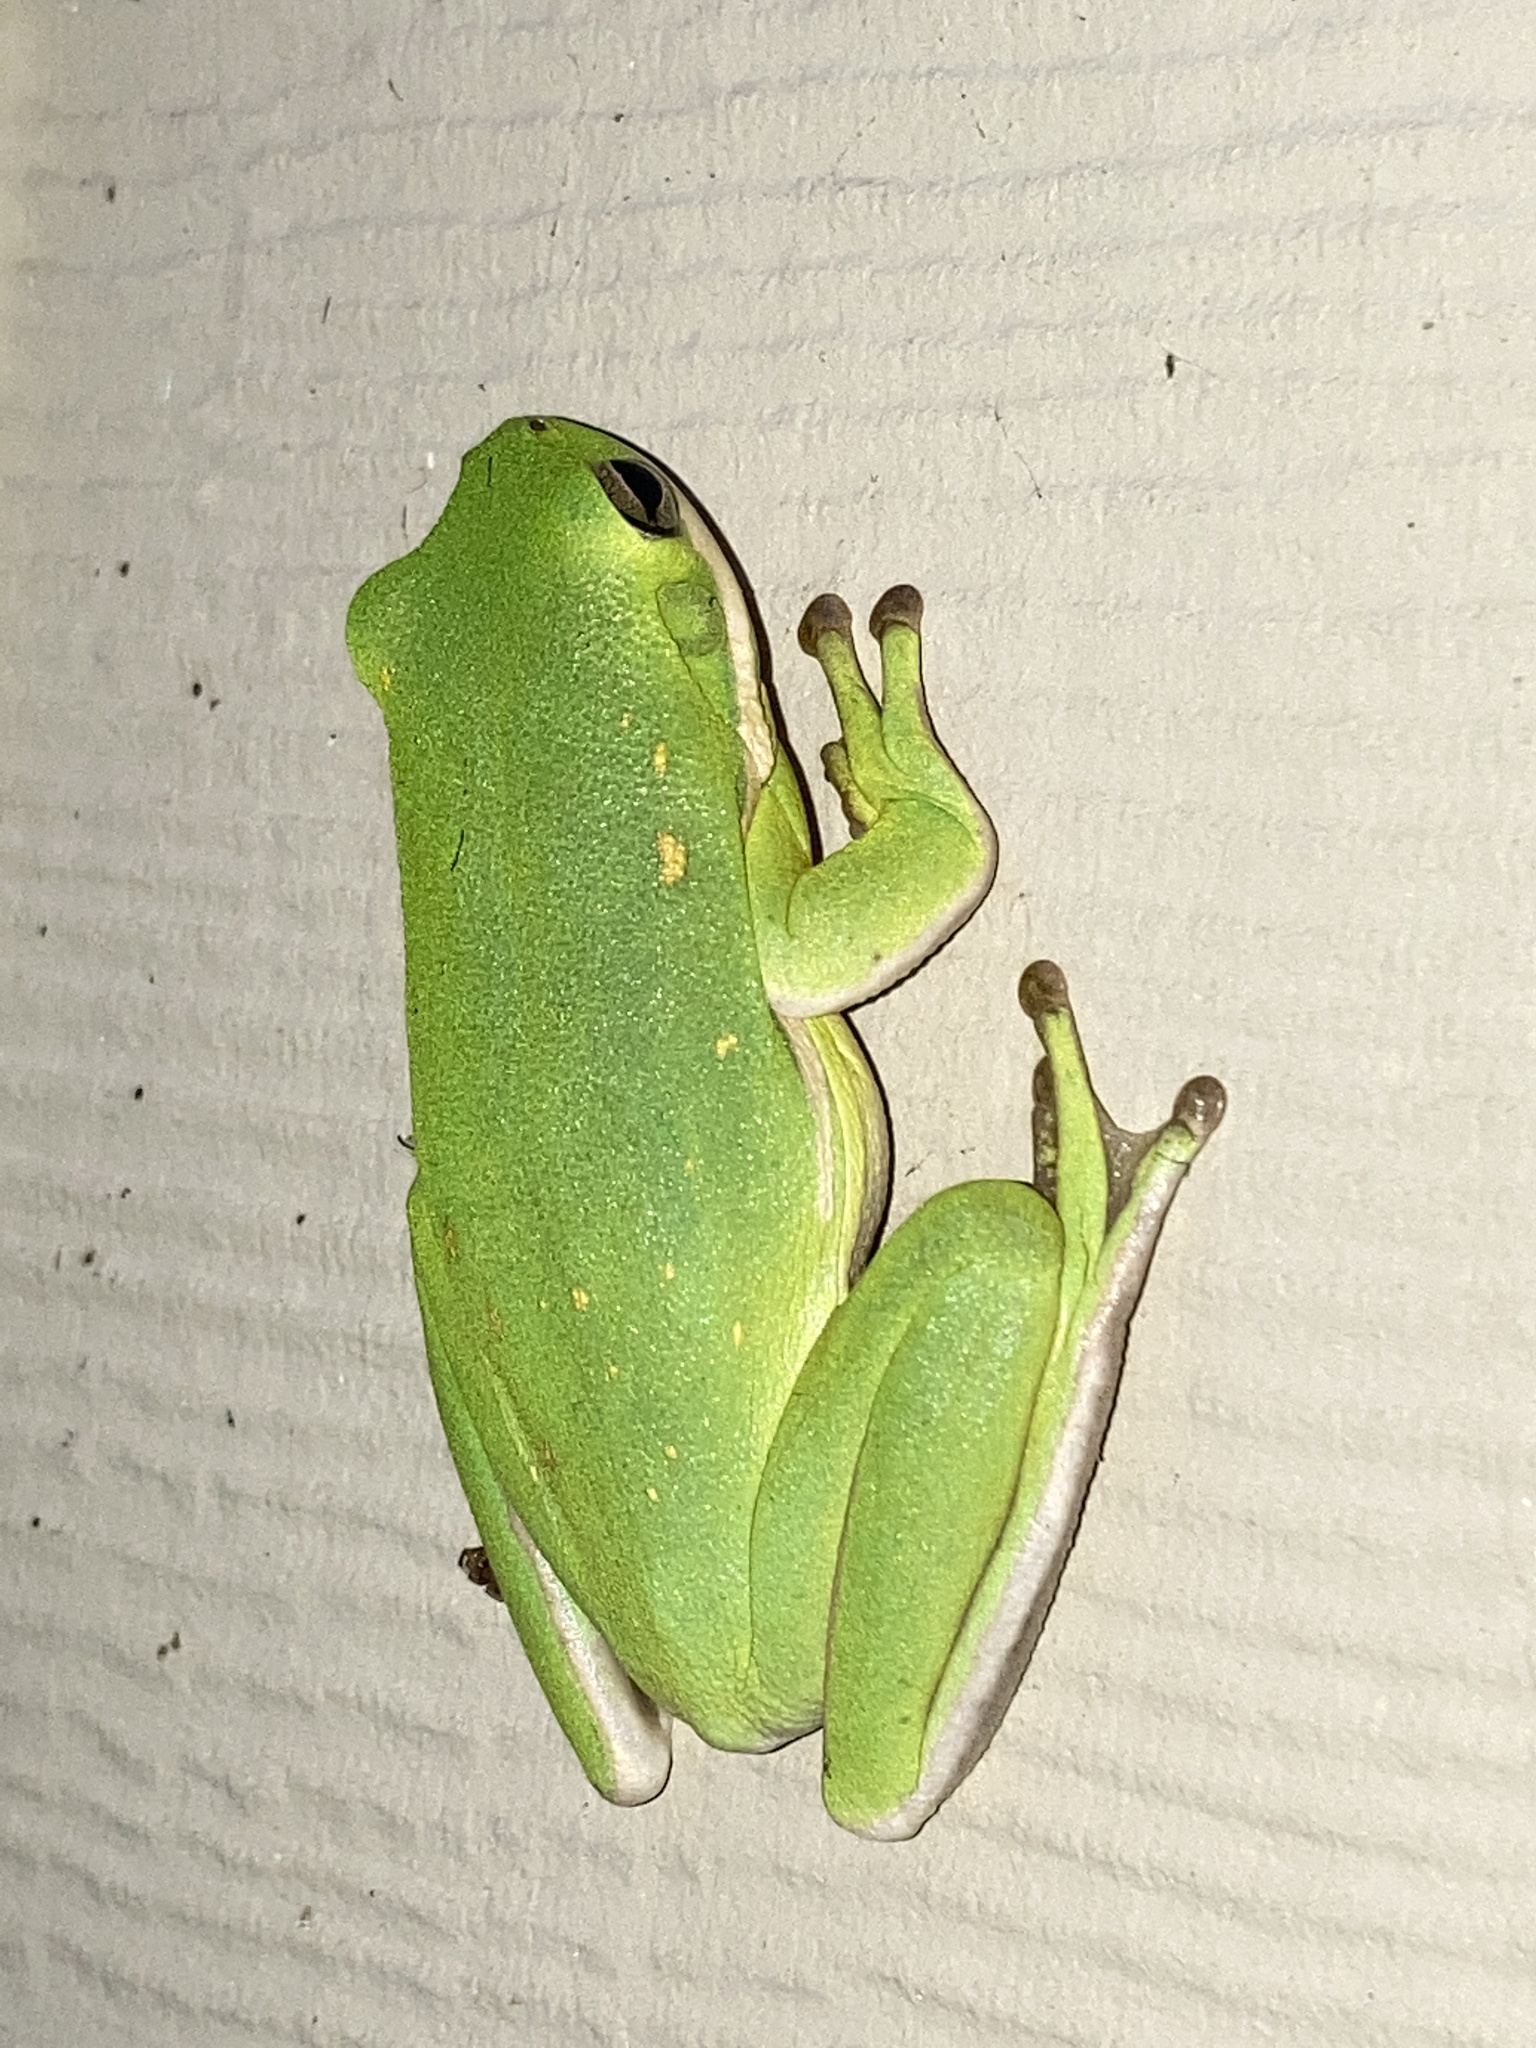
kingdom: Animalia
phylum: Chordata
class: Amphibia
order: Anura
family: Hylidae
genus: Dryophytes
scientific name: Dryophytes cinereus
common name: Green treefrog
